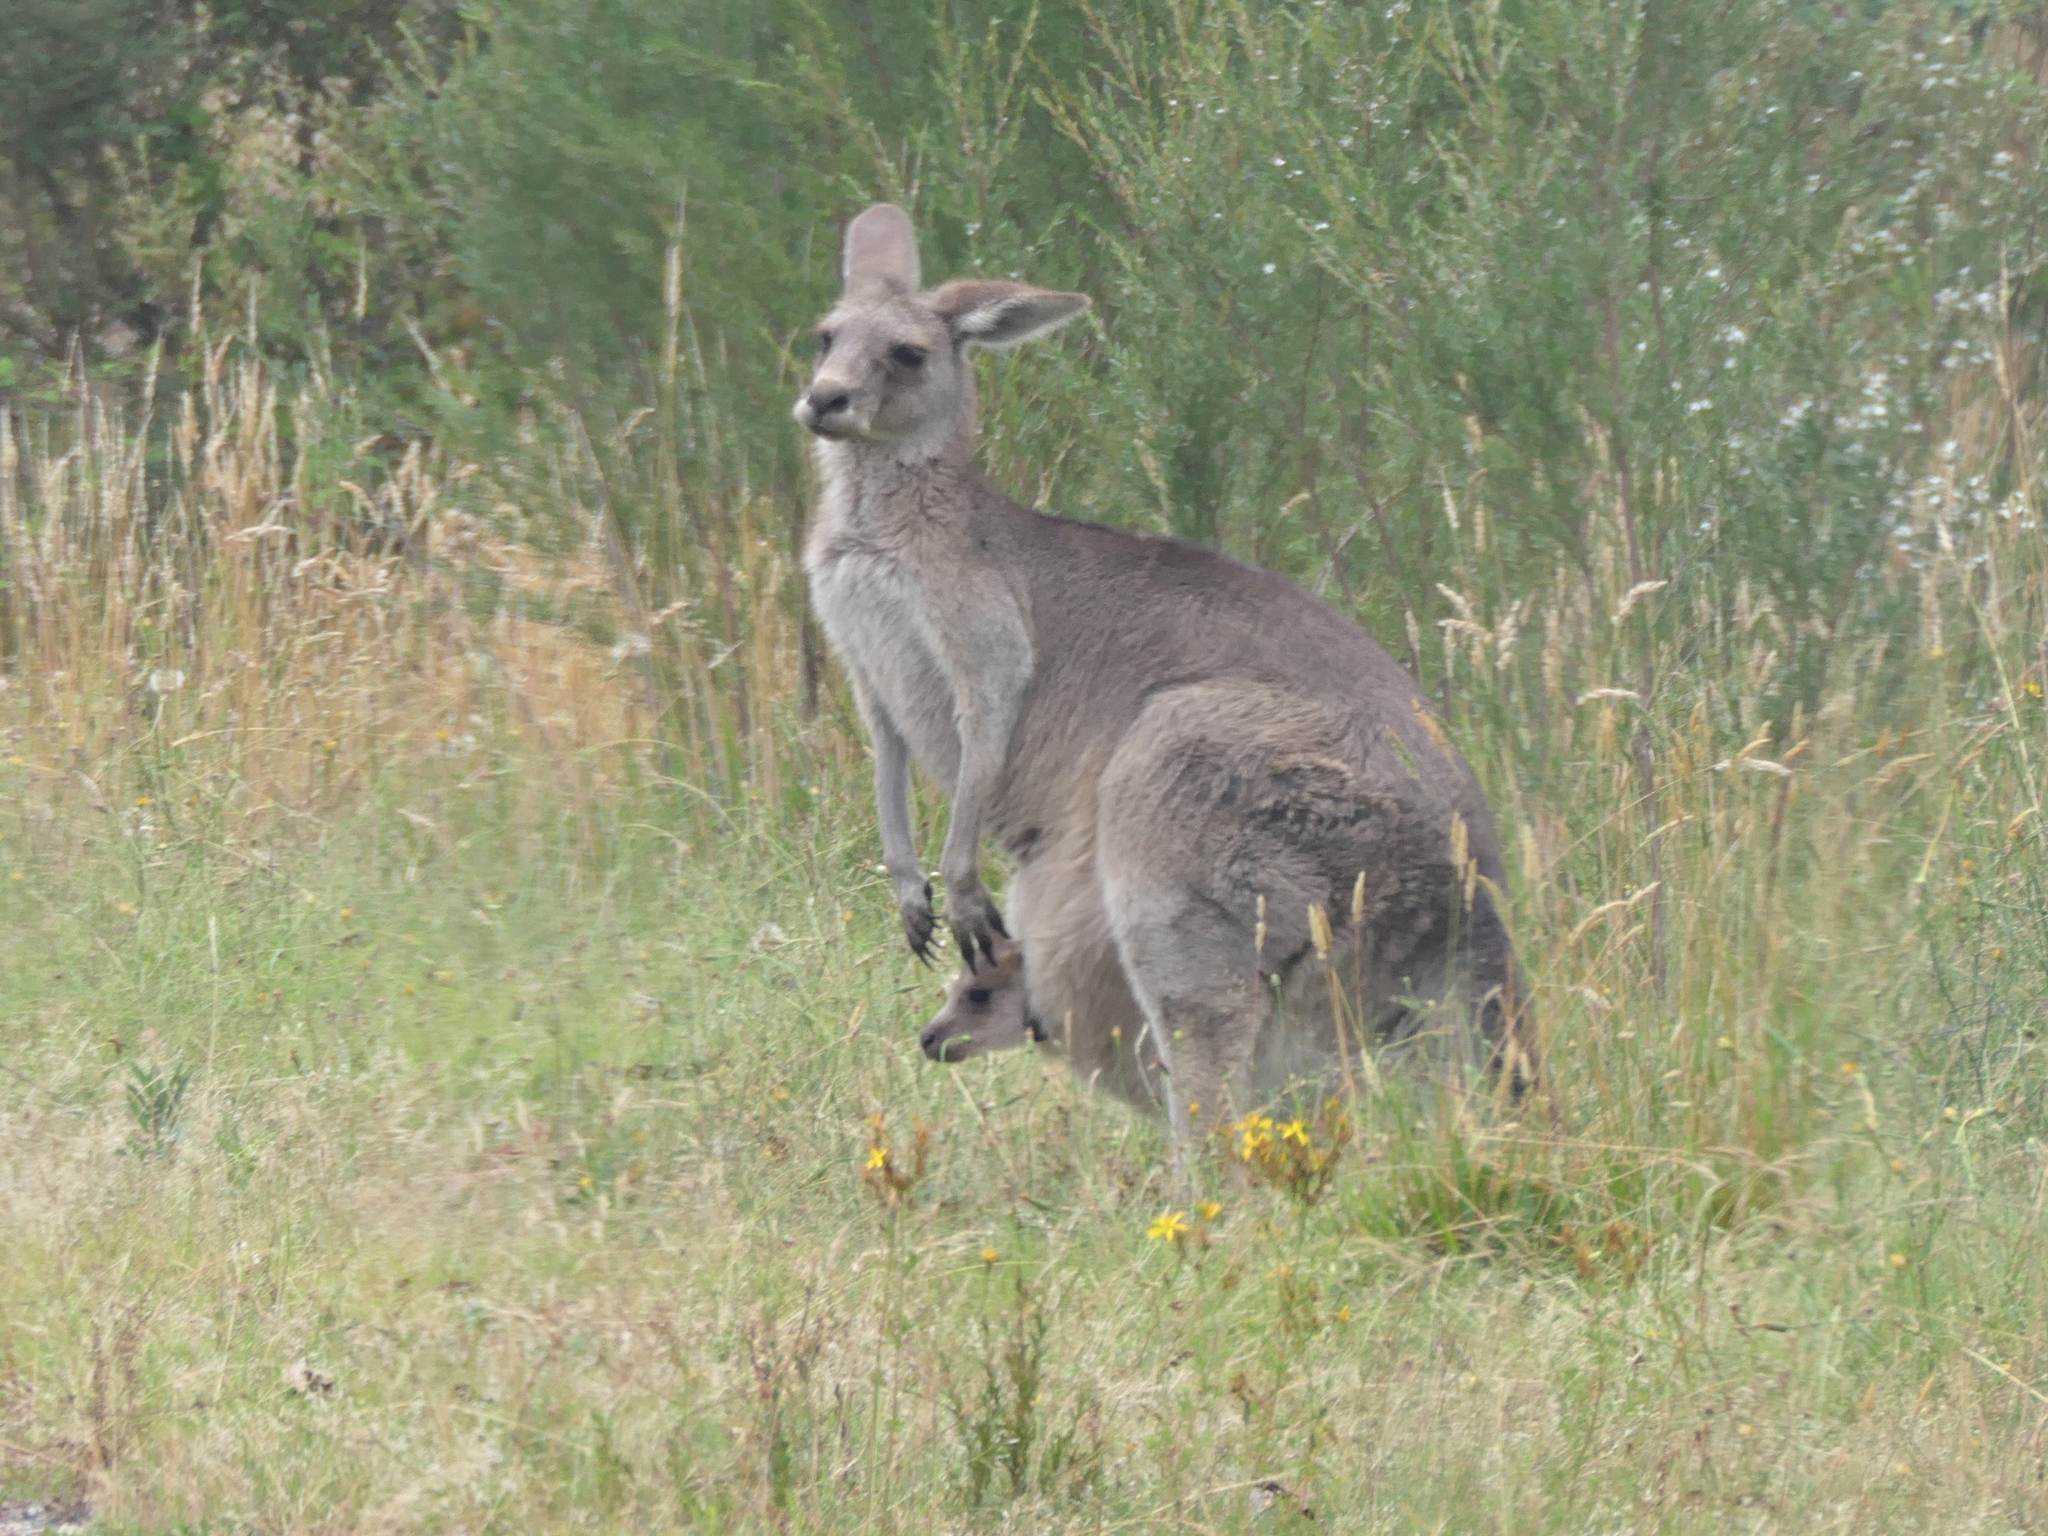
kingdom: Animalia
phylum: Chordata
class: Mammalia
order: Diprotodontia
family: Macropodidae
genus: Macropus
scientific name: Macropus giganteus
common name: Eastern grey kangaroo
